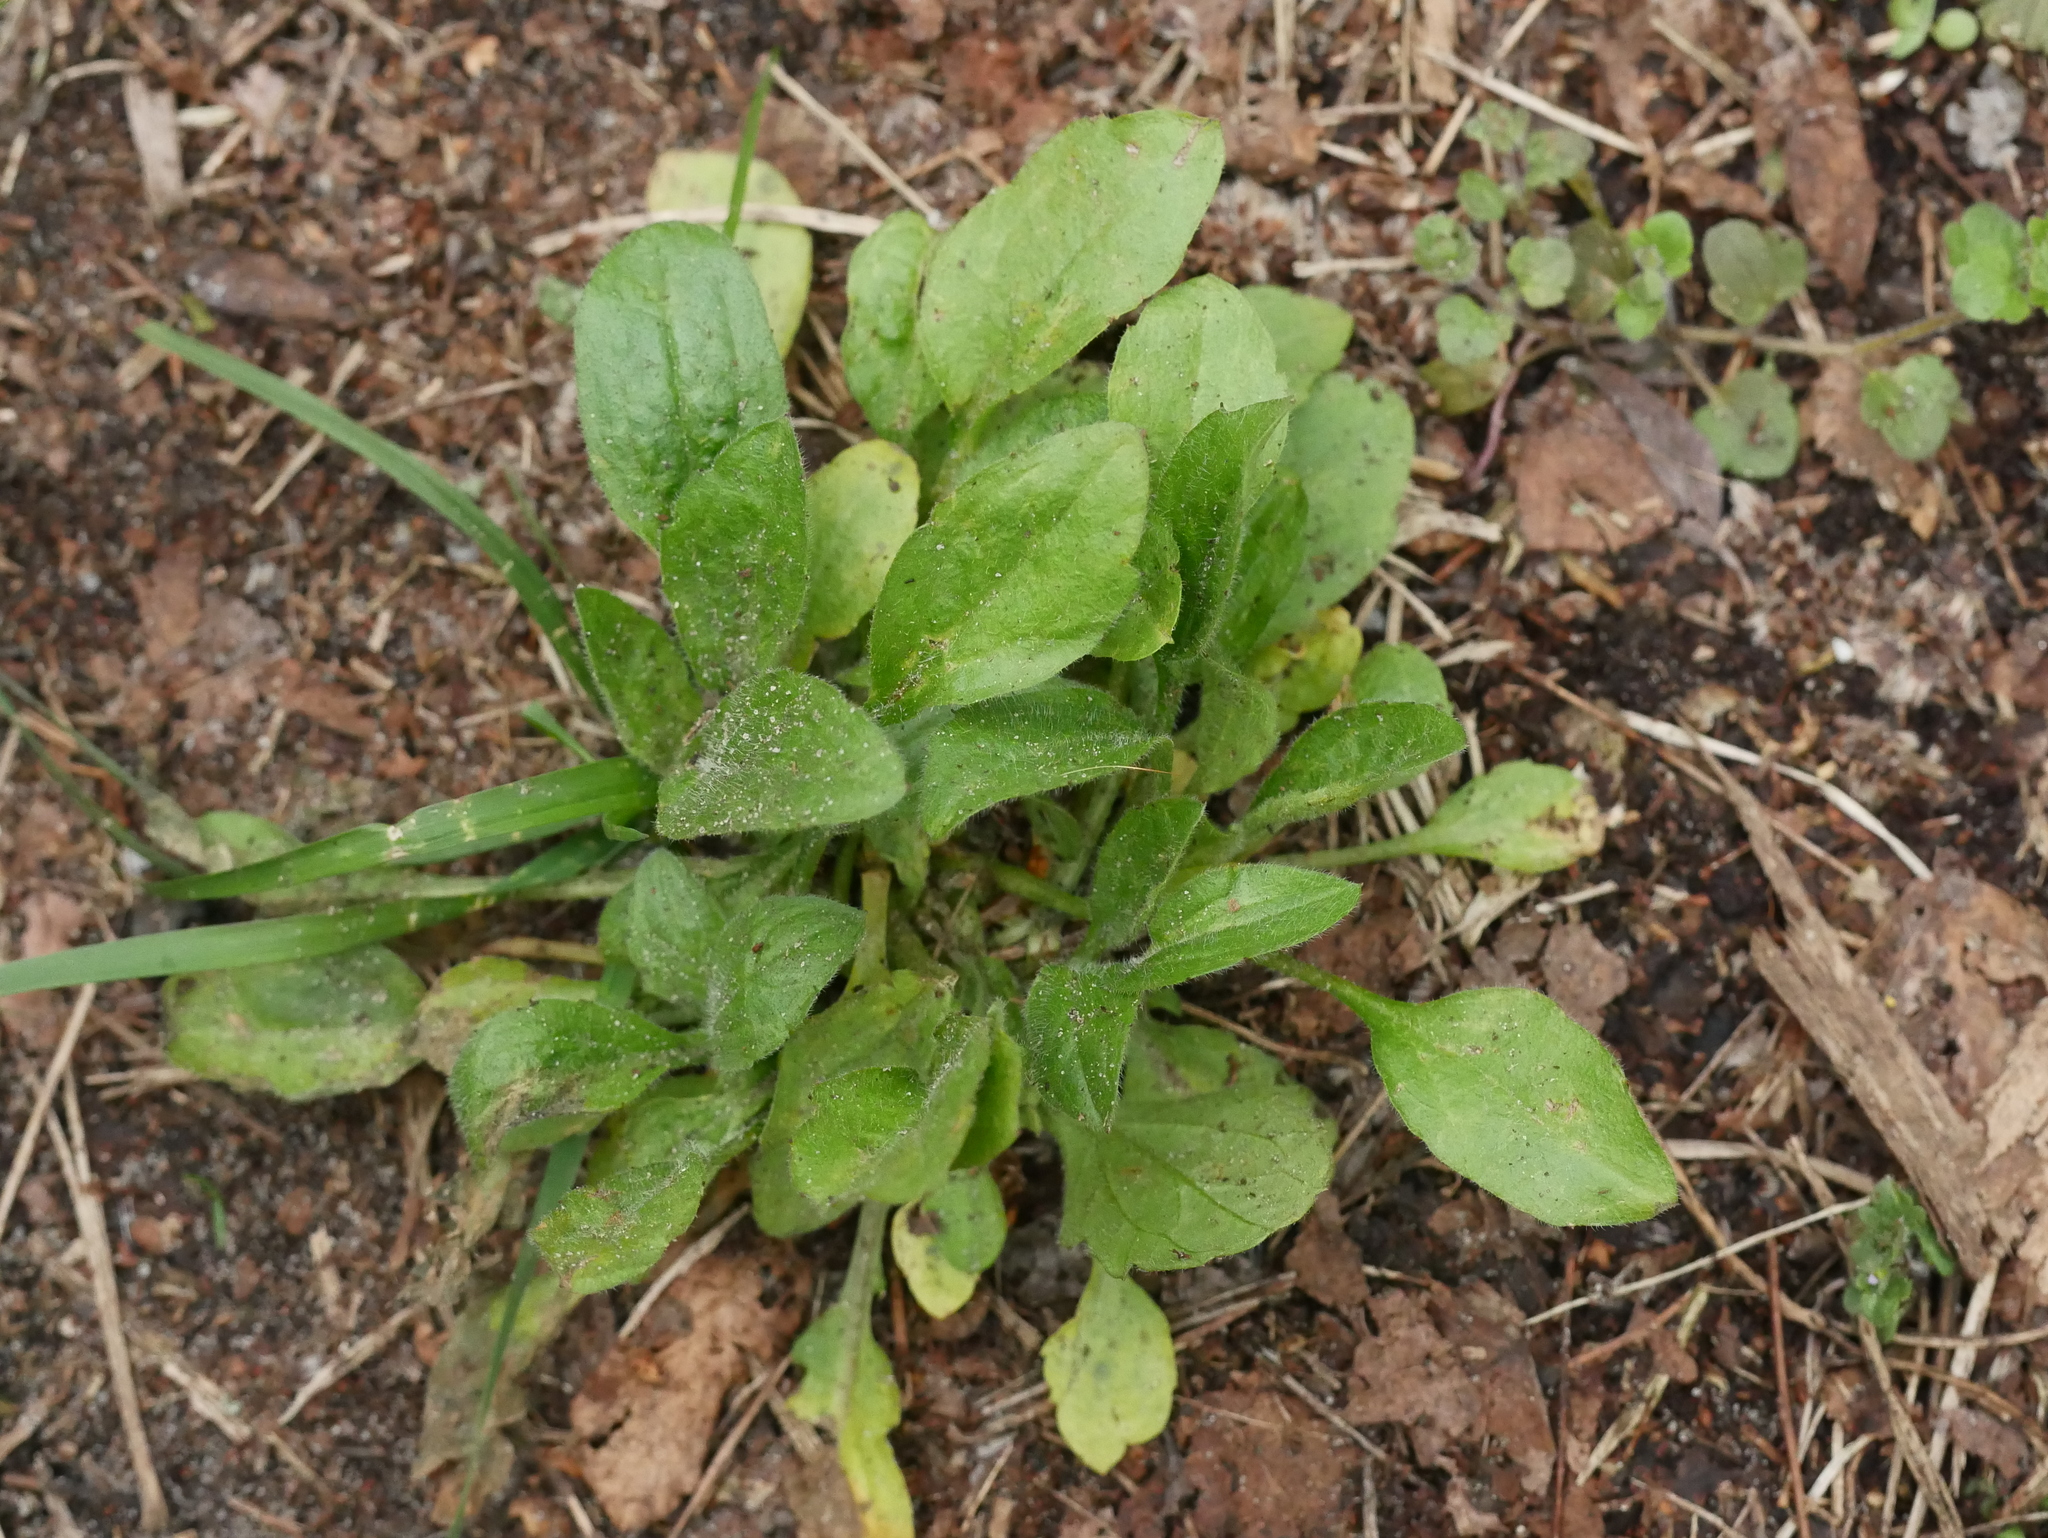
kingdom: Plantae
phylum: Tracheophyta
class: Magnoliopsida
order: Asterales
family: Asteraceae
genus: Erigeron
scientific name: Erigeron canadensis
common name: Canadian fleabane
